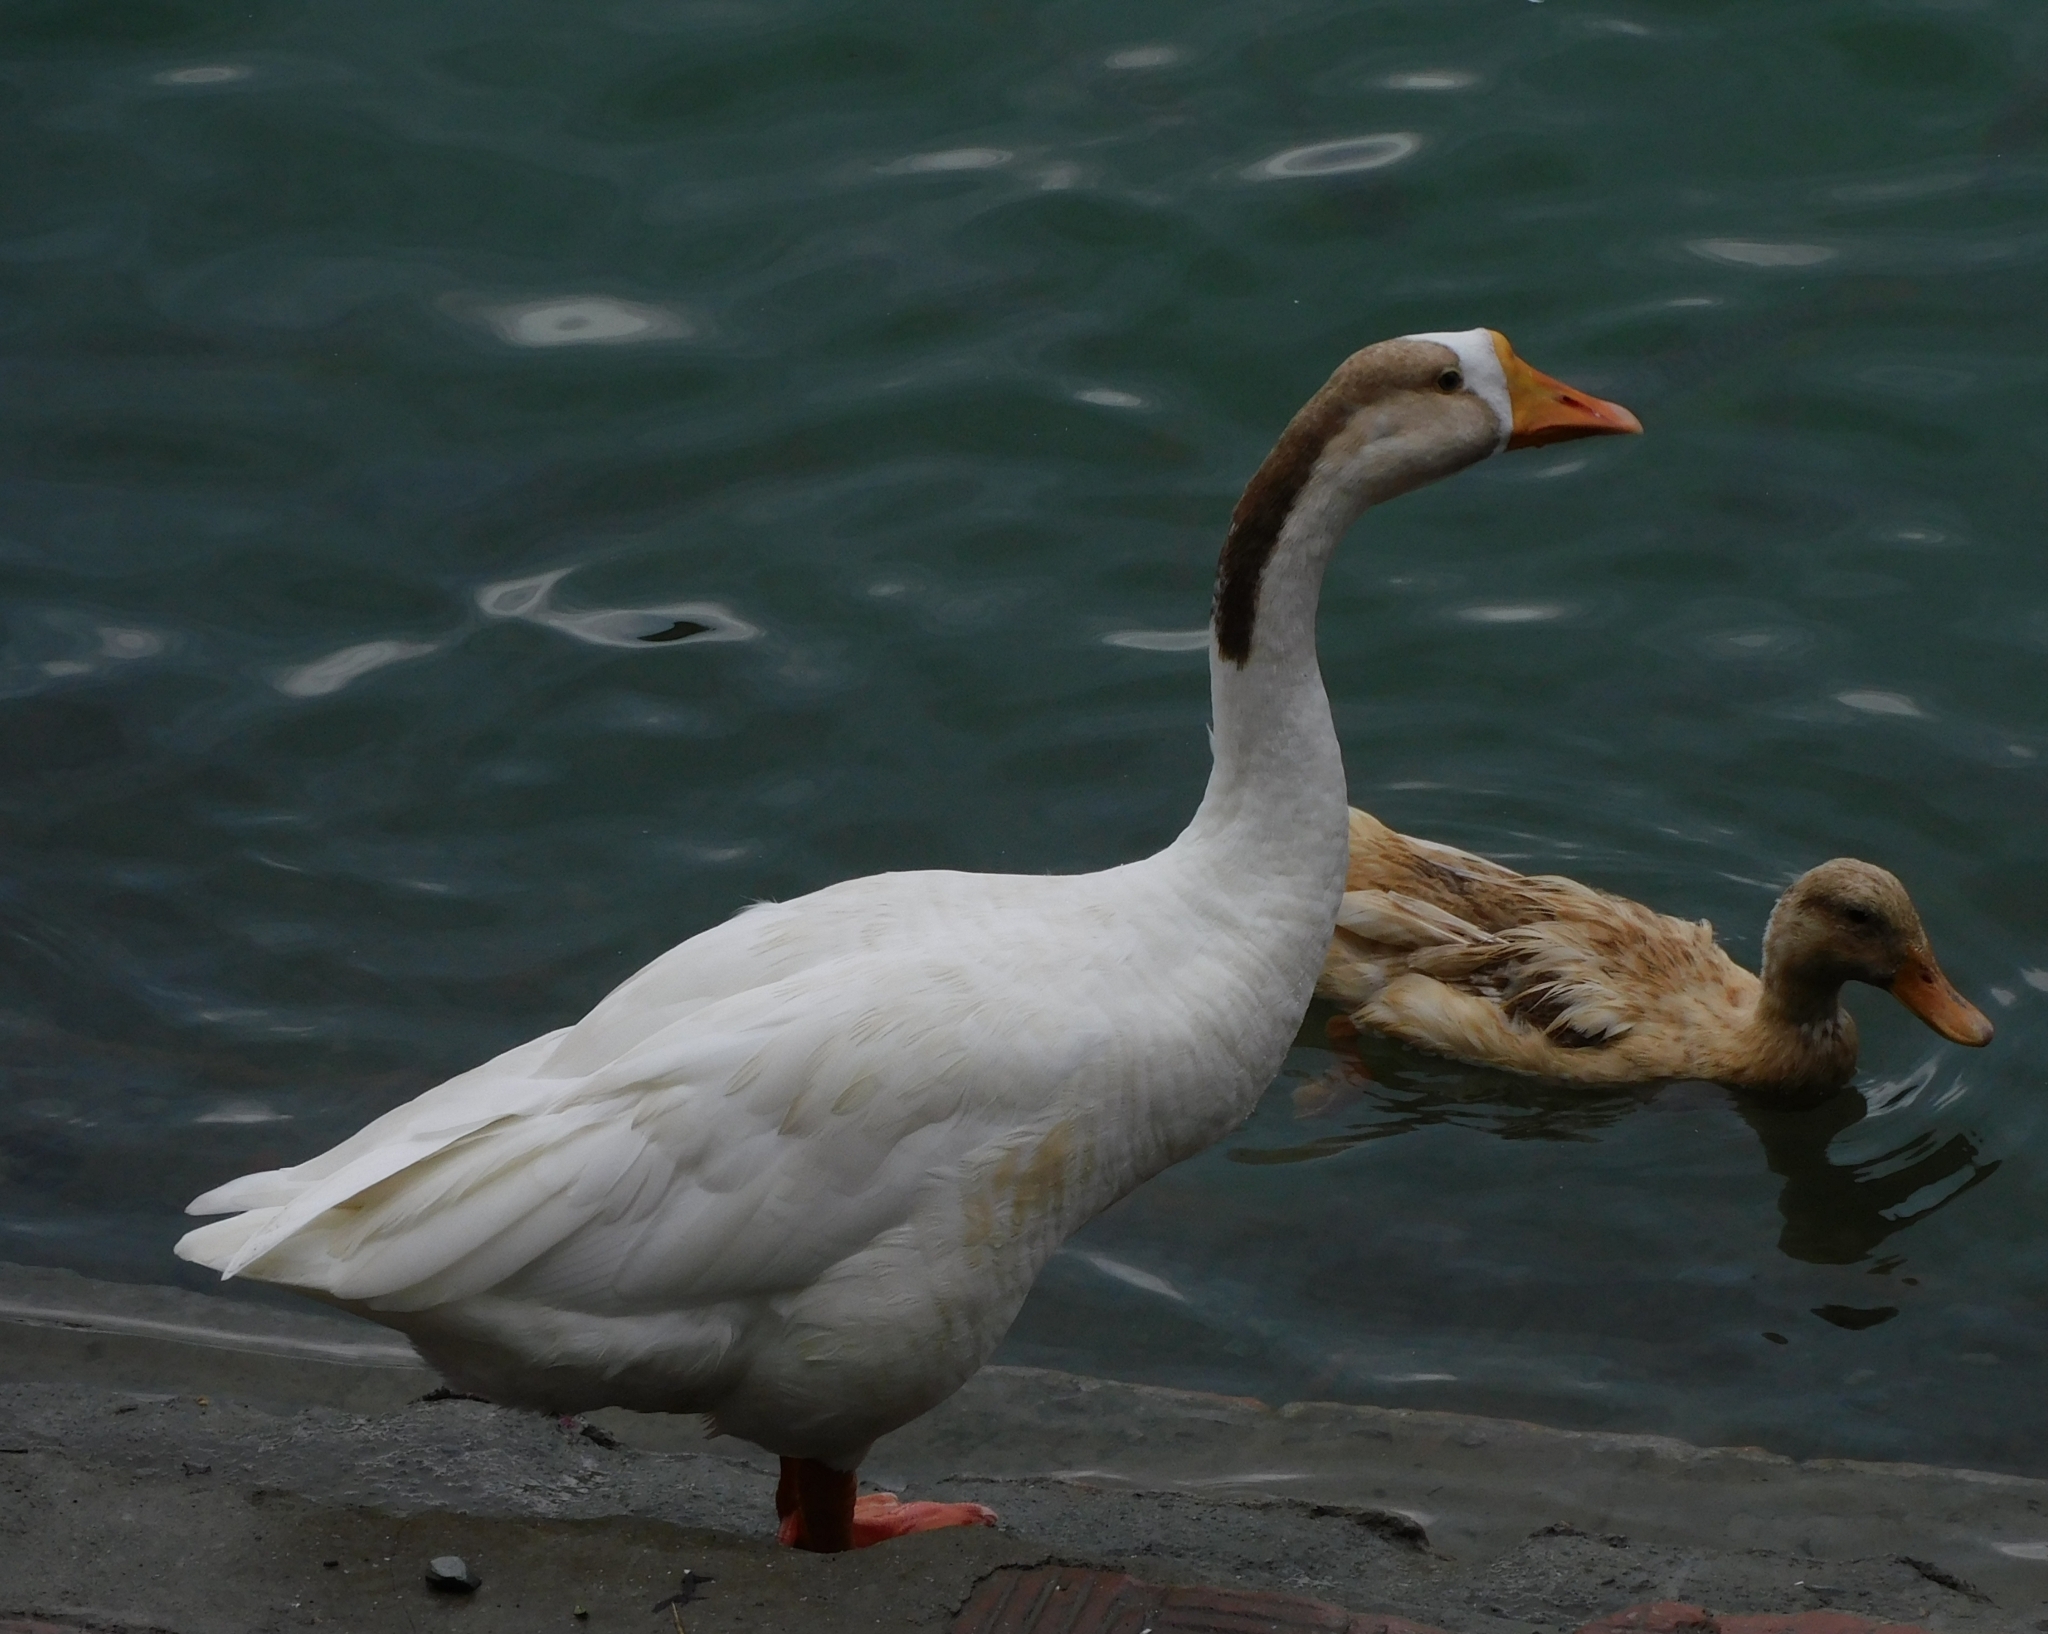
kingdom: Animalia
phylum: Chordata
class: Aves
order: Anseriformes
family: Anatidae
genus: Anser
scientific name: Anser cygnoides
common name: Swan goose
